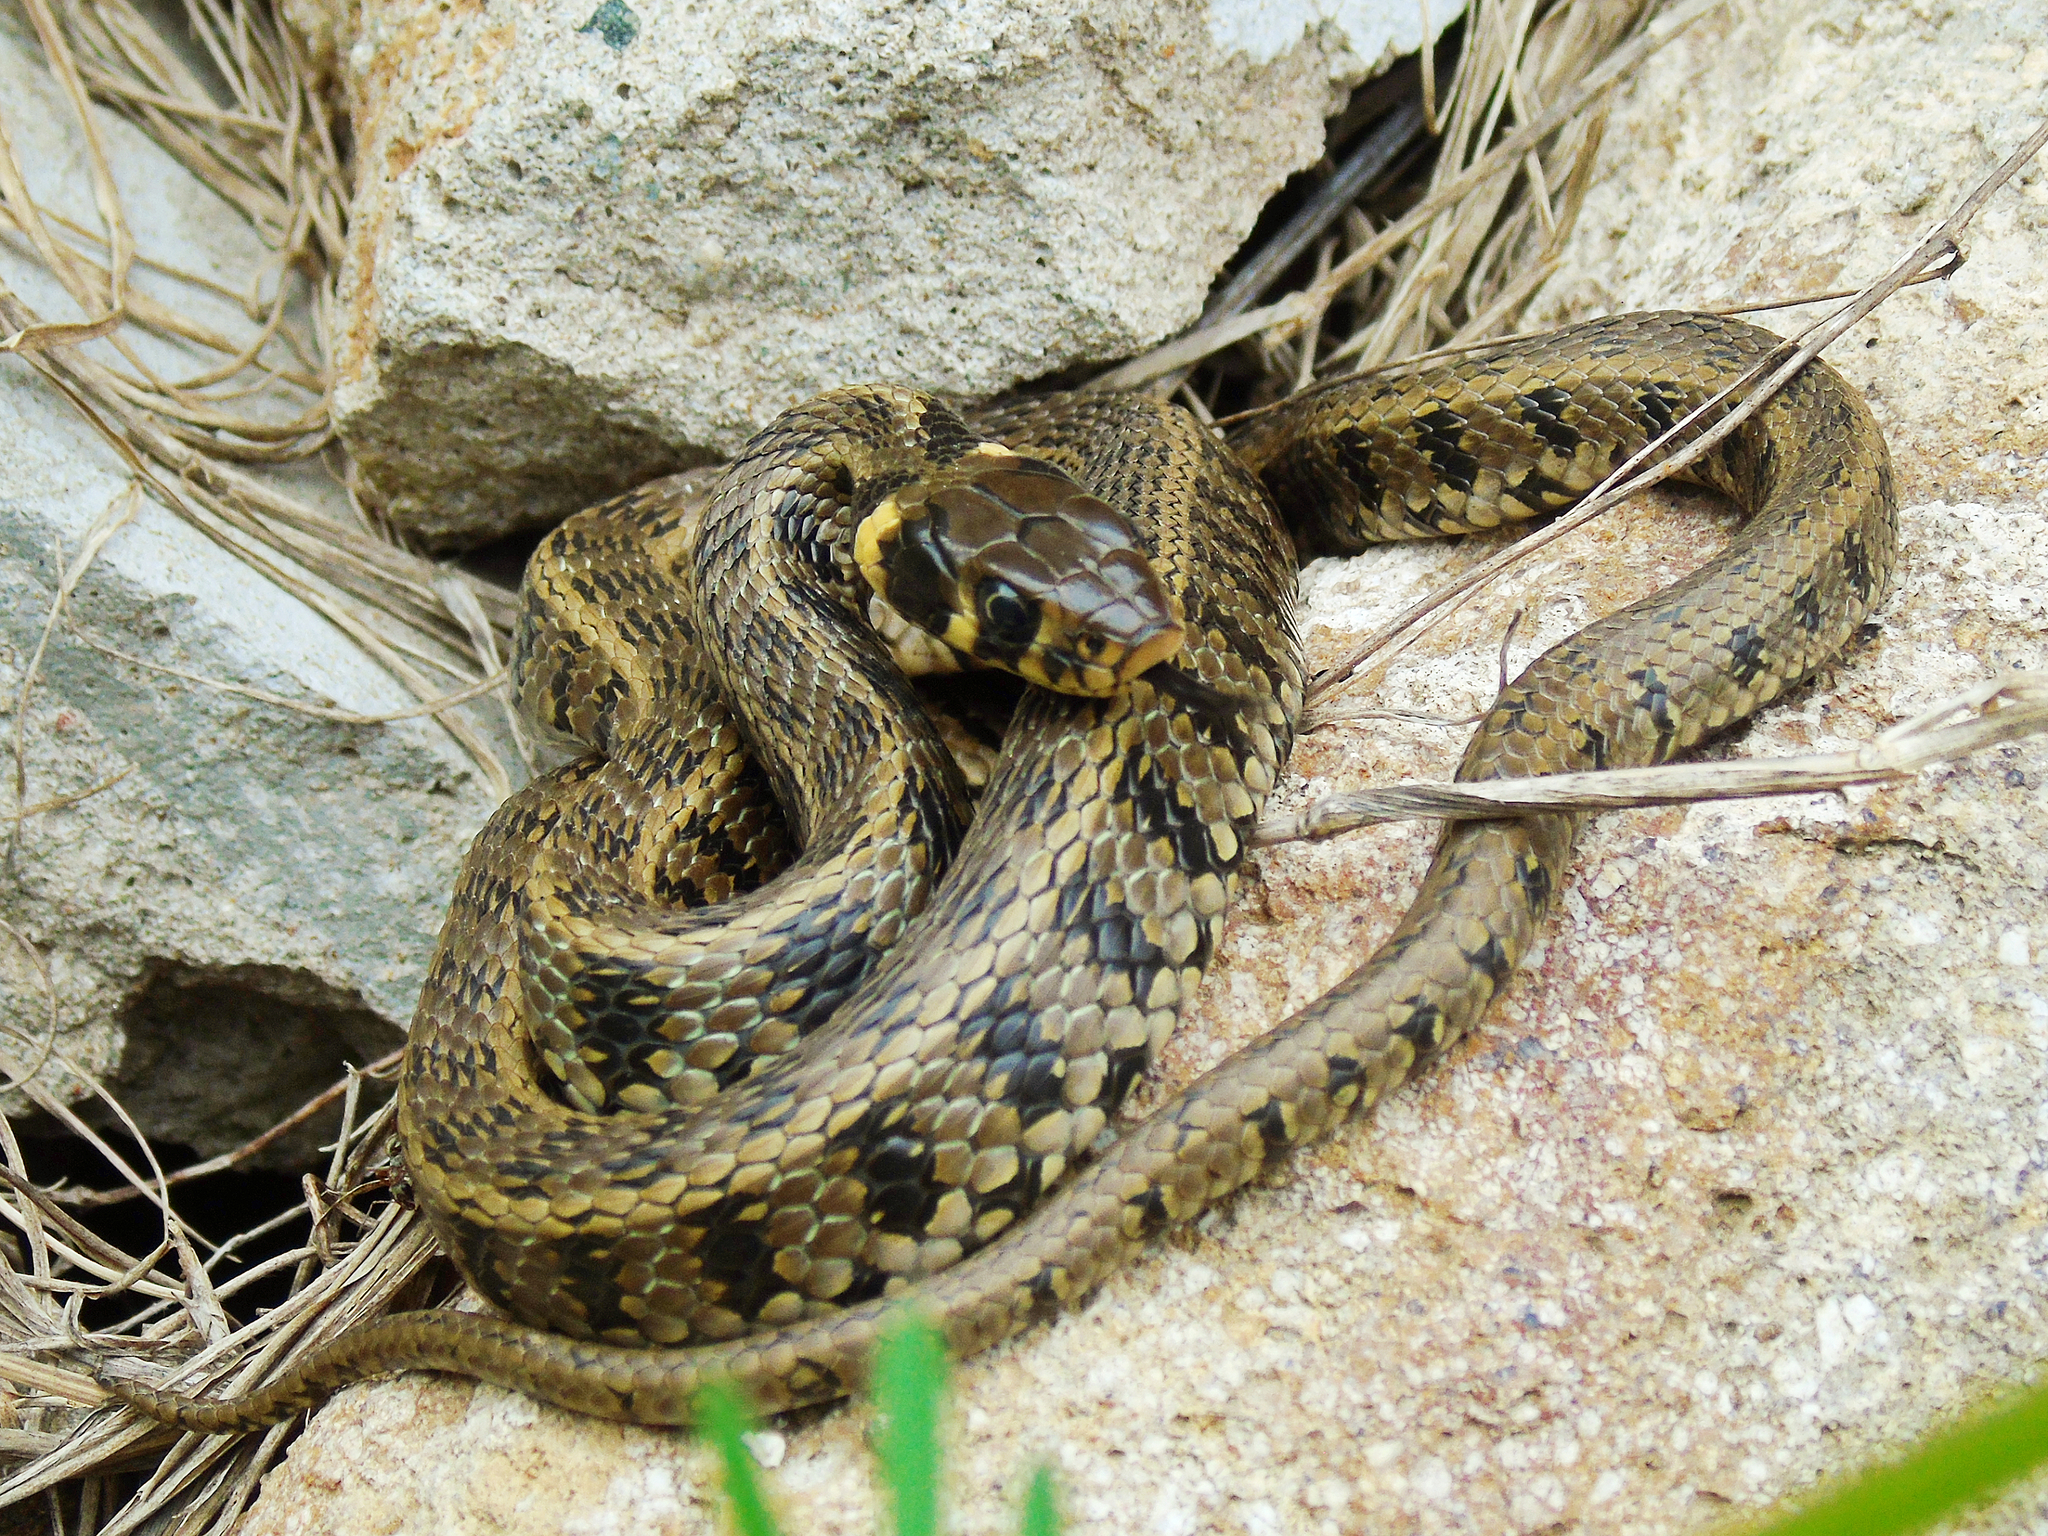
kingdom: Animalia
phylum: Chordata
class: Squamata
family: Colubridae
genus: Natrix
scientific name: Natrix natrix
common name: Grass snake
